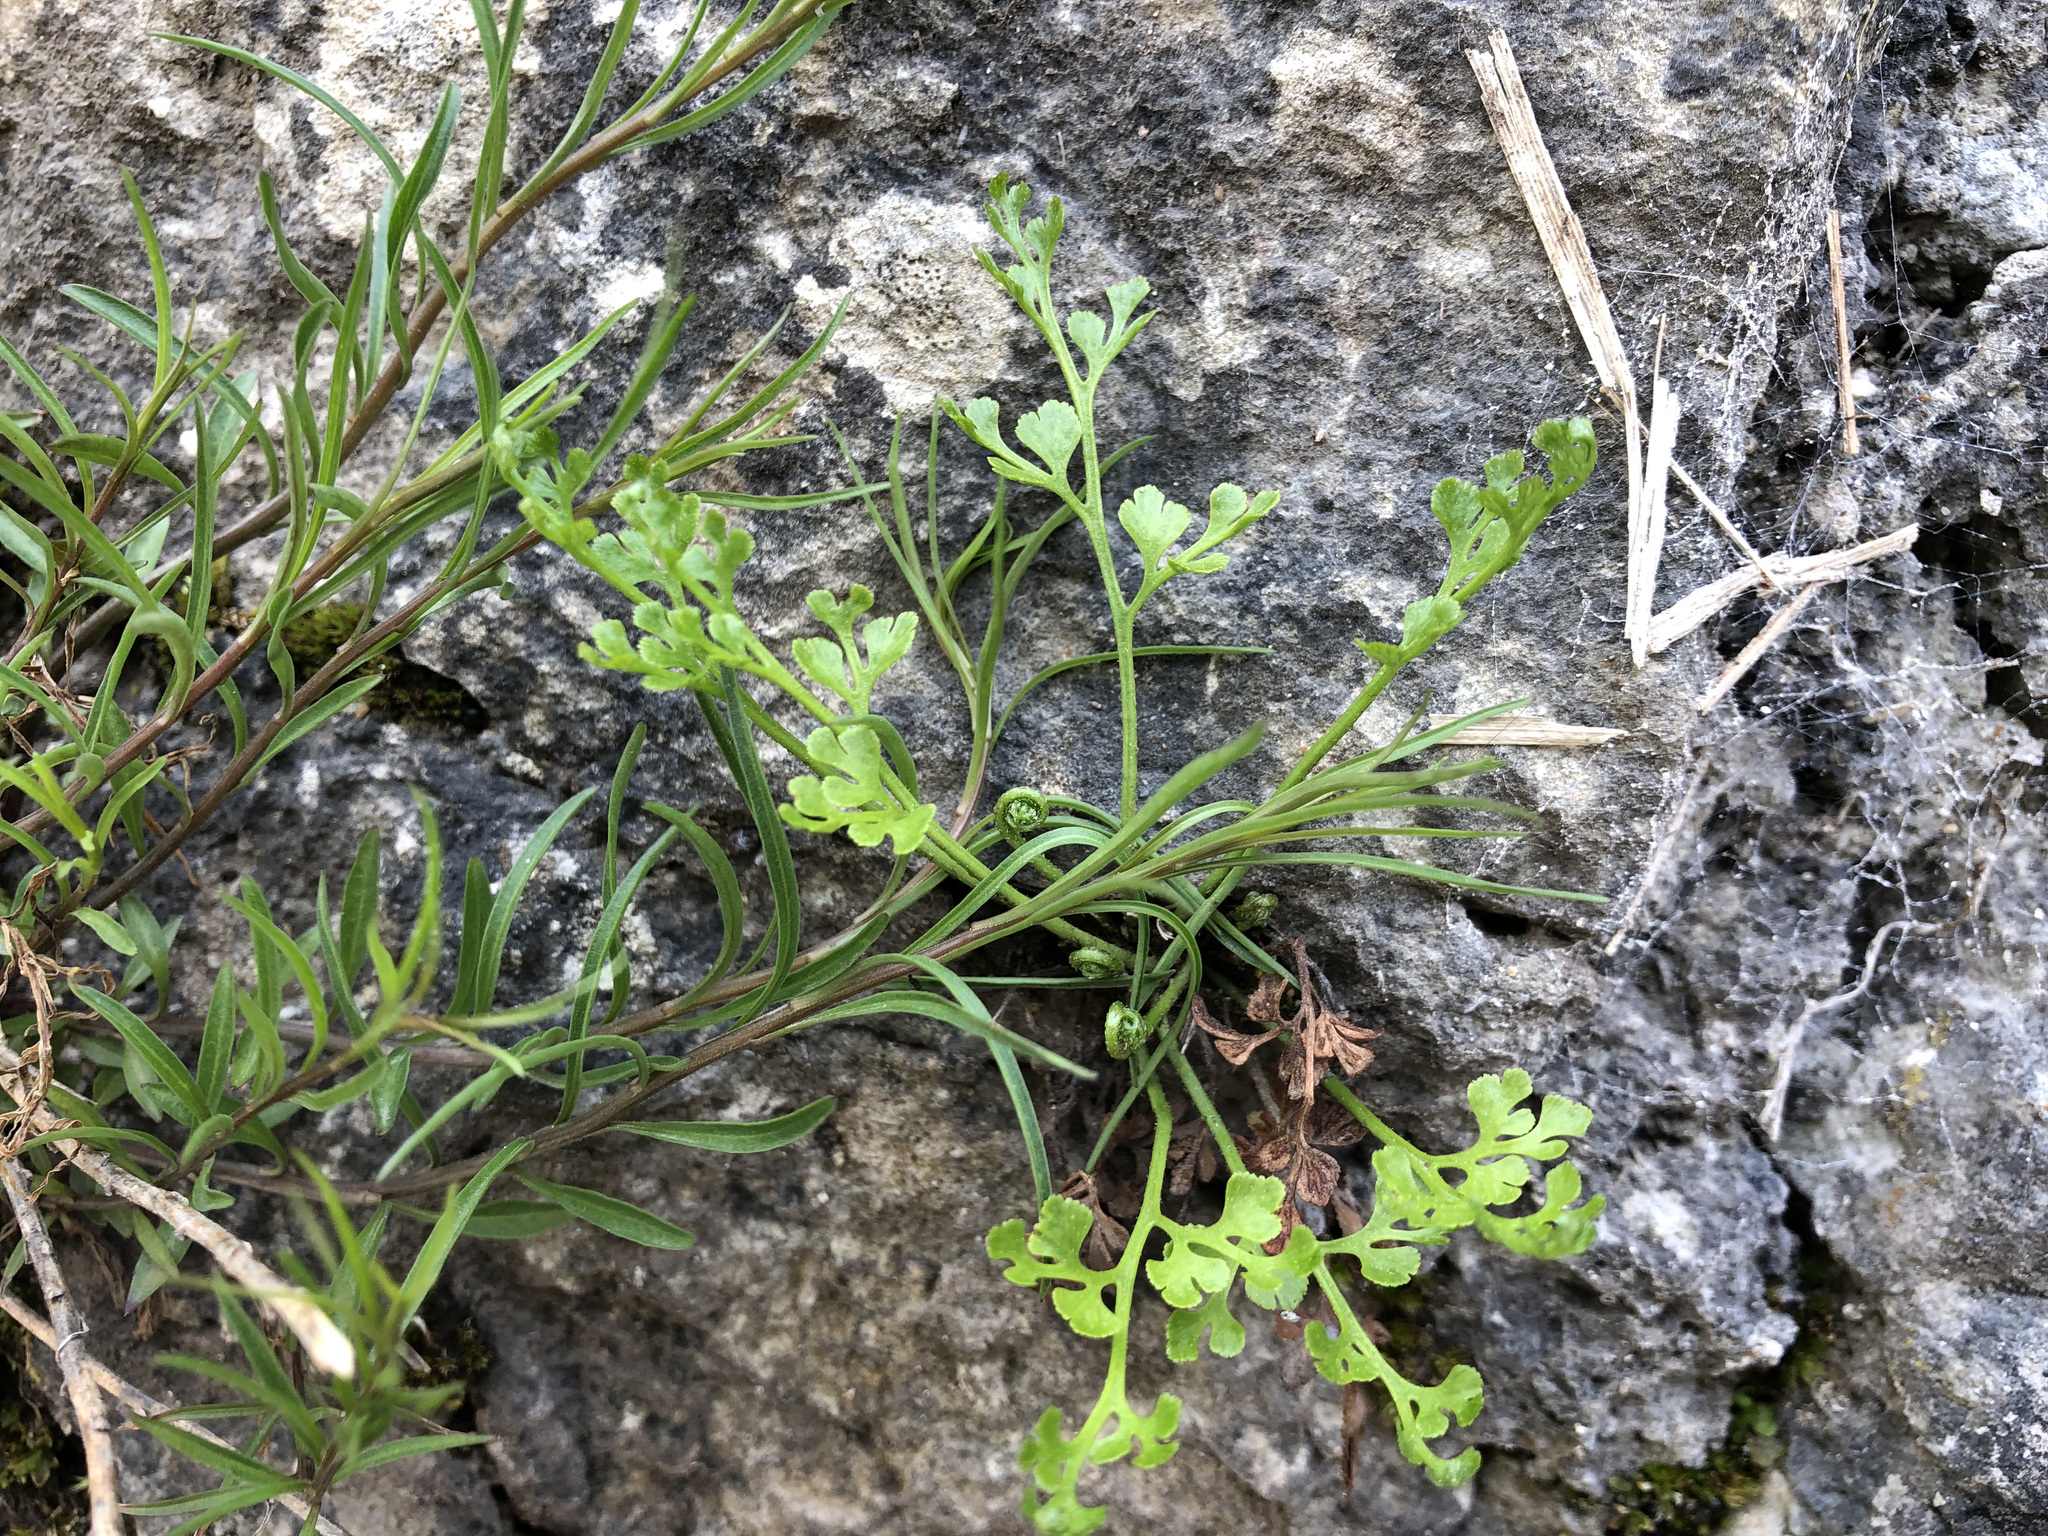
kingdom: Plantae
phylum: Tracheophyta
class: Polypodiopsida
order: Polypodiales
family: Aspleniaceae
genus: Asplenium
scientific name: Asplenium ruta-muraria
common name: Wall-rue
